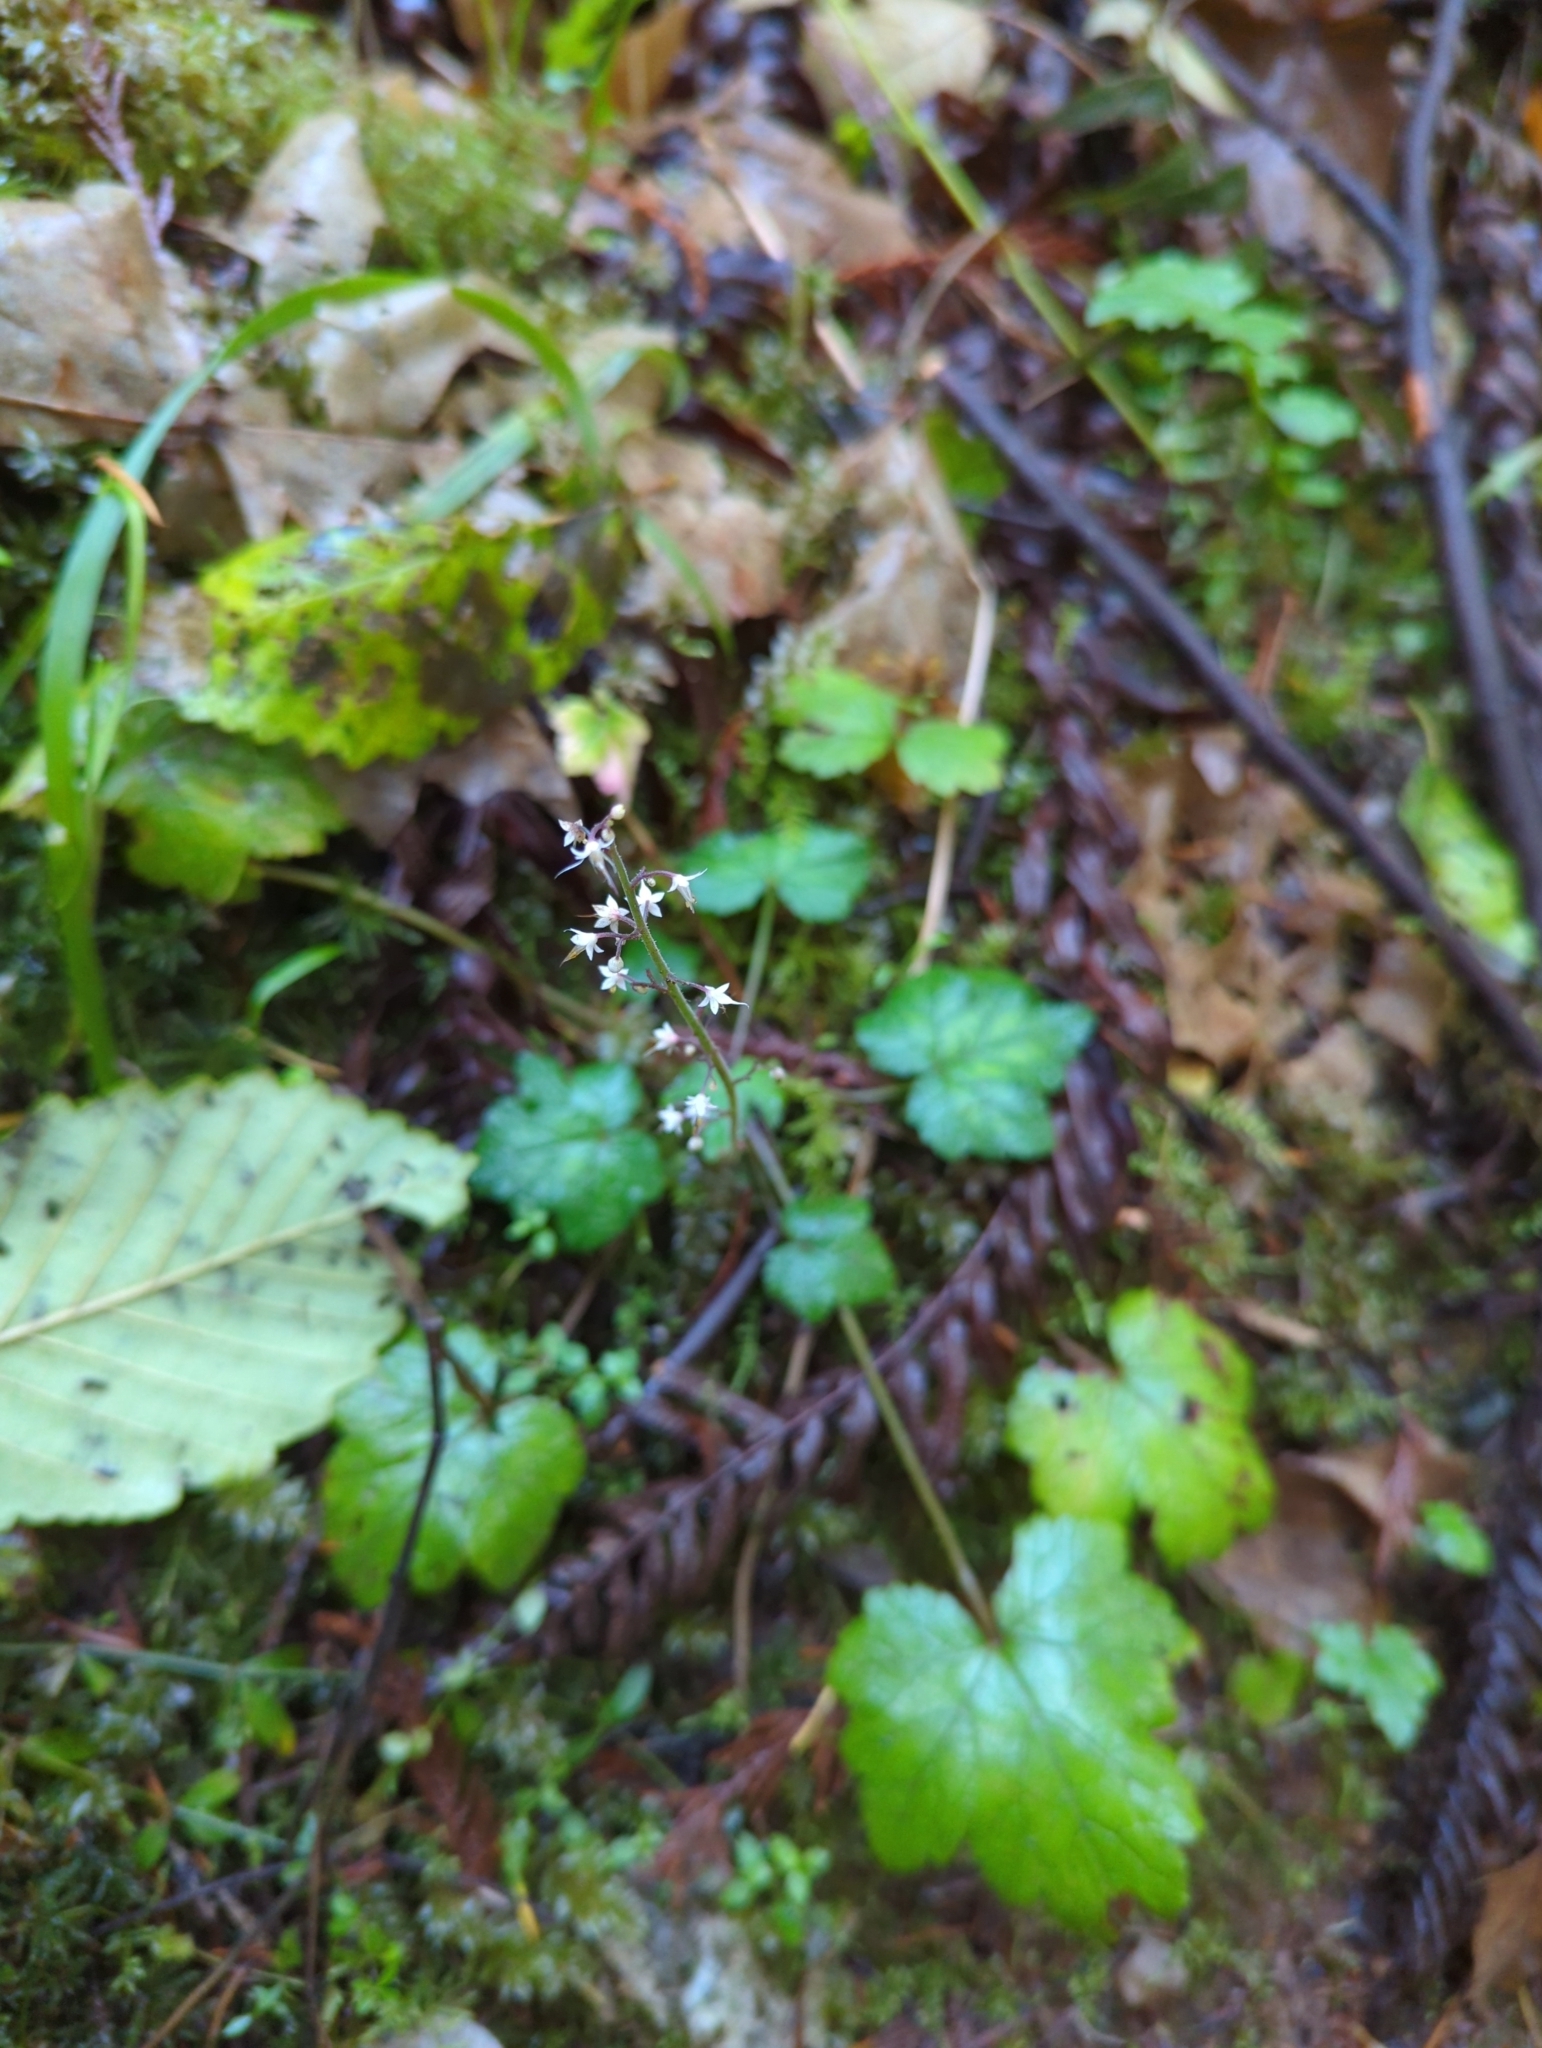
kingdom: Plantae
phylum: Tracheophyta
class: Magnoliopsida
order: Saxifragales
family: Saxifragaceae
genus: Tiarella
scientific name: Tiarella trifoliata
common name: Sugar-scoop
